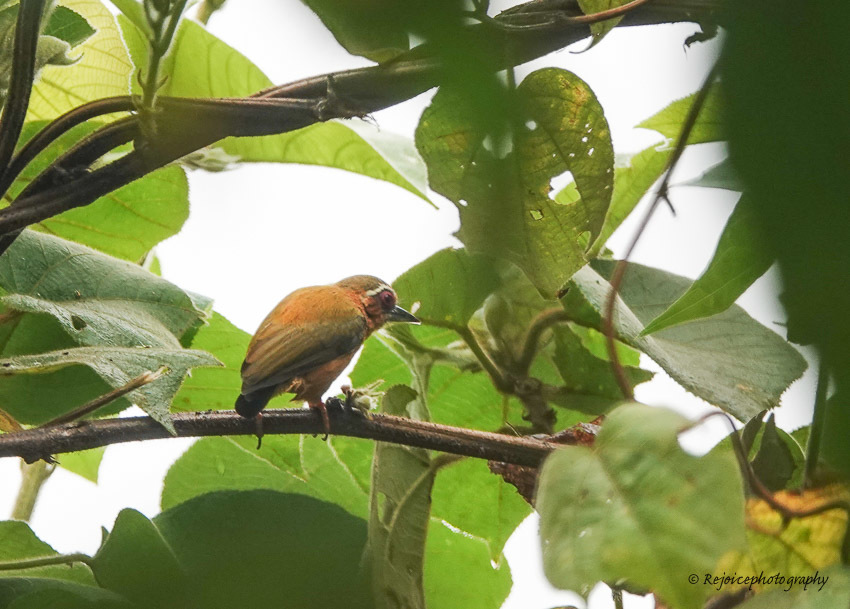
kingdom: Animalia
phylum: Chordata
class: Aves
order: Piciformes
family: Picidae
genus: Sasia
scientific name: Sasia ochracea
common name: White-browed piculet
